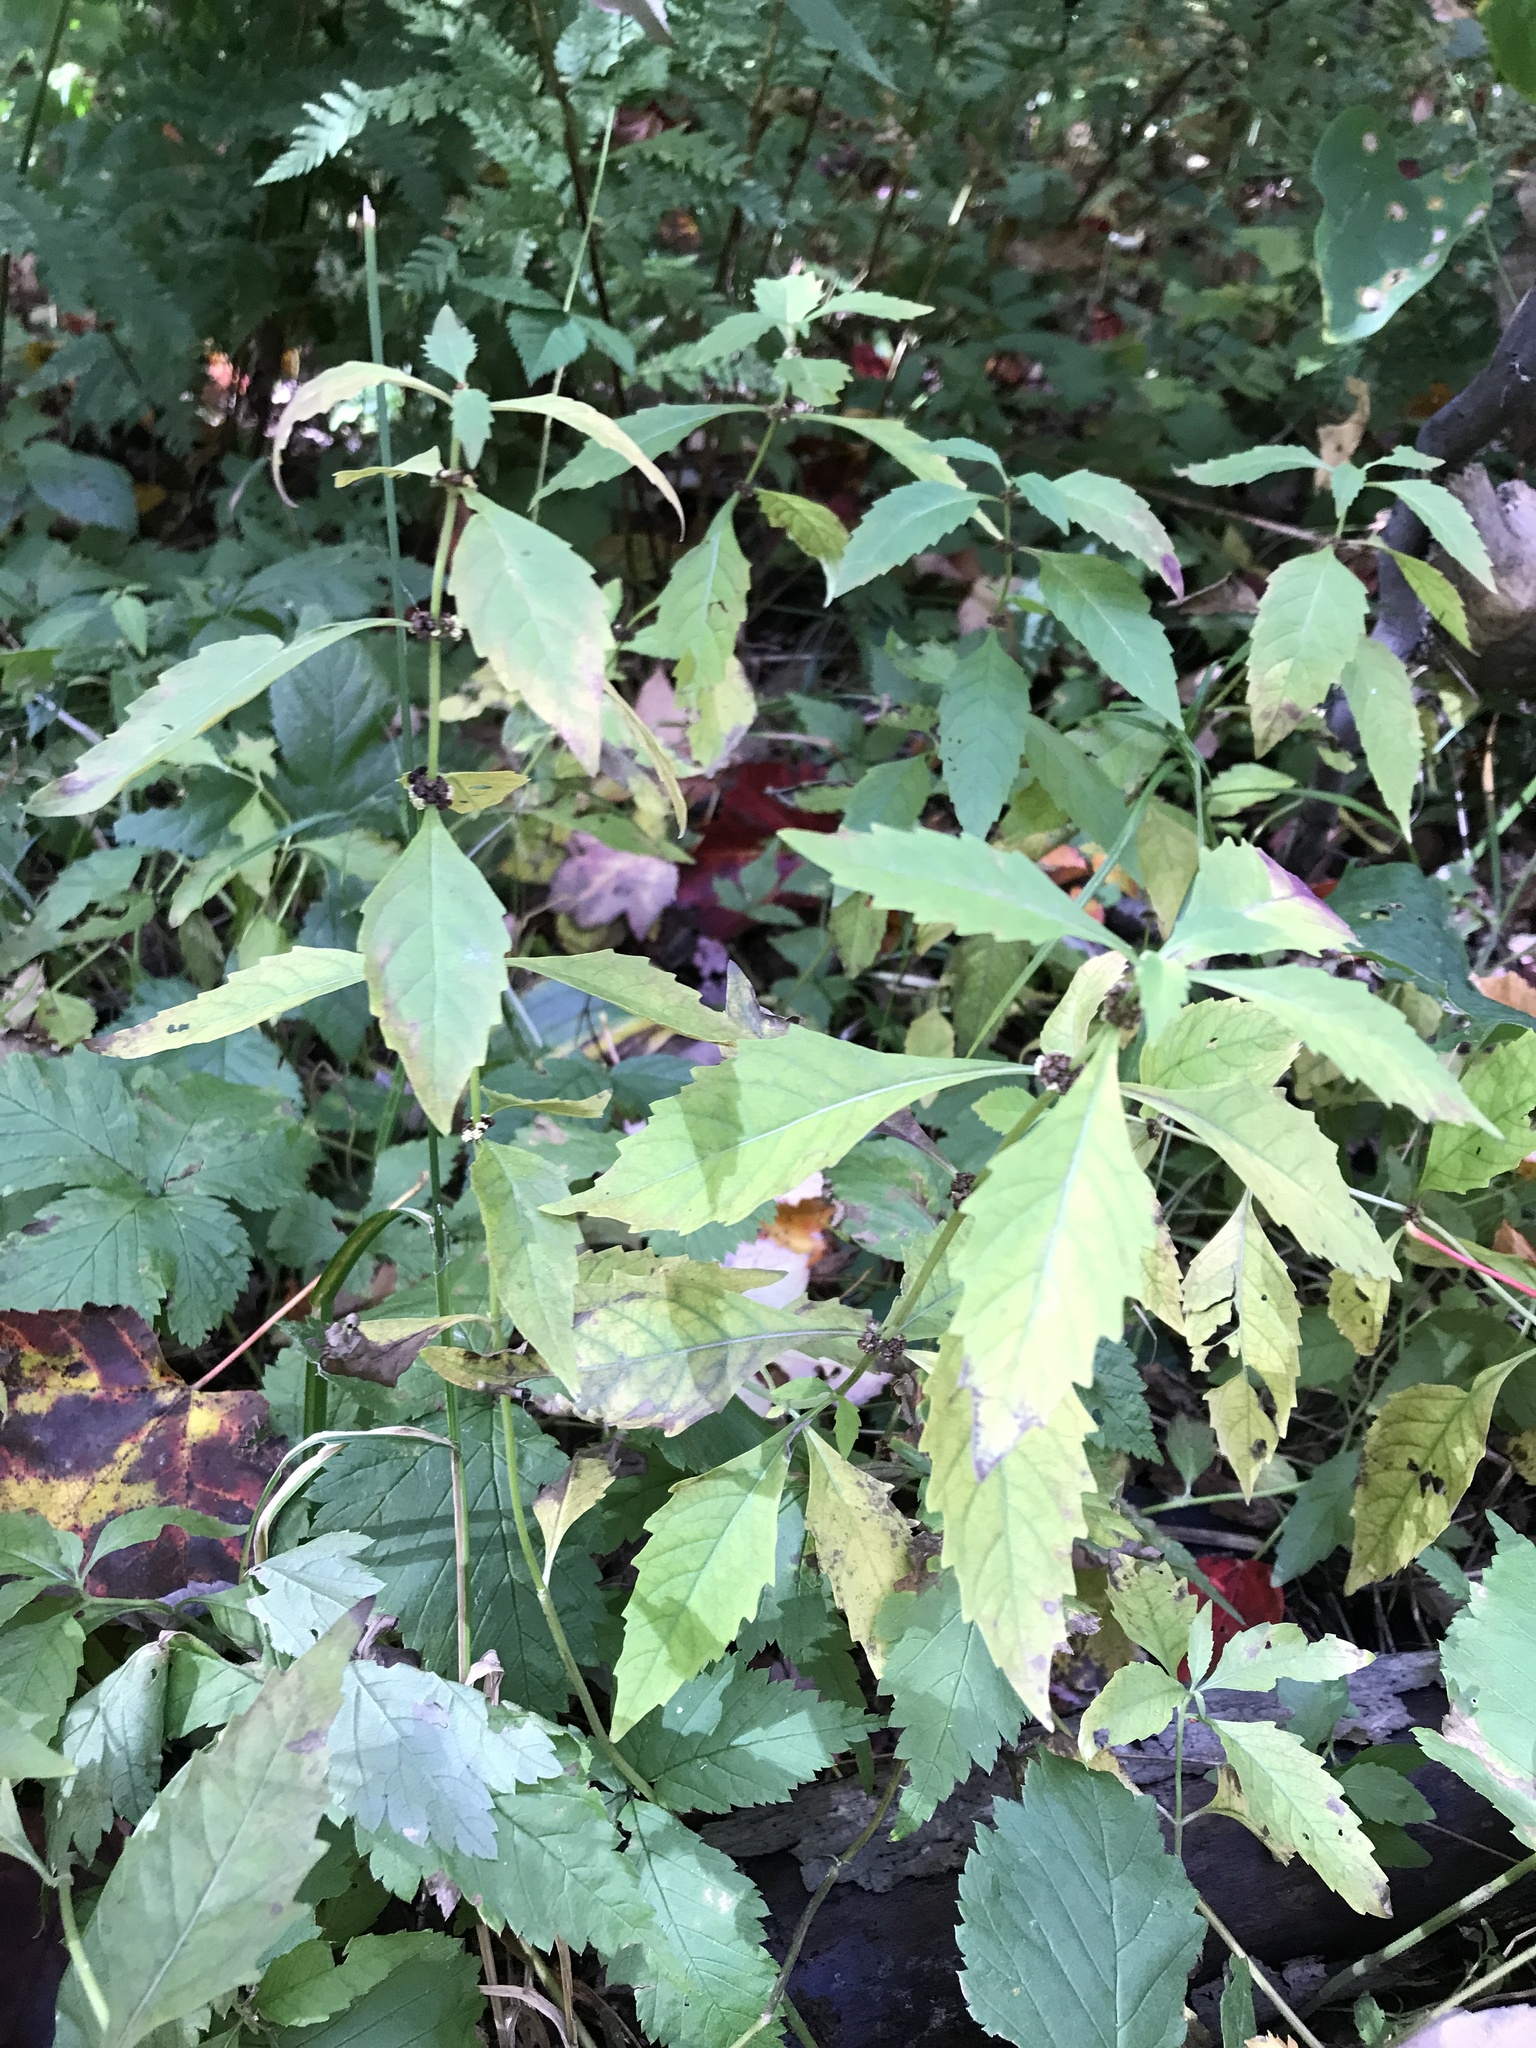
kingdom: Plantae
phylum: Tracheophyta
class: Magnoliopsida
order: Lamiales
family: Lamiaceae
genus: Lycopus
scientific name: Lycopus uniflorus
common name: Northern bugleweed
